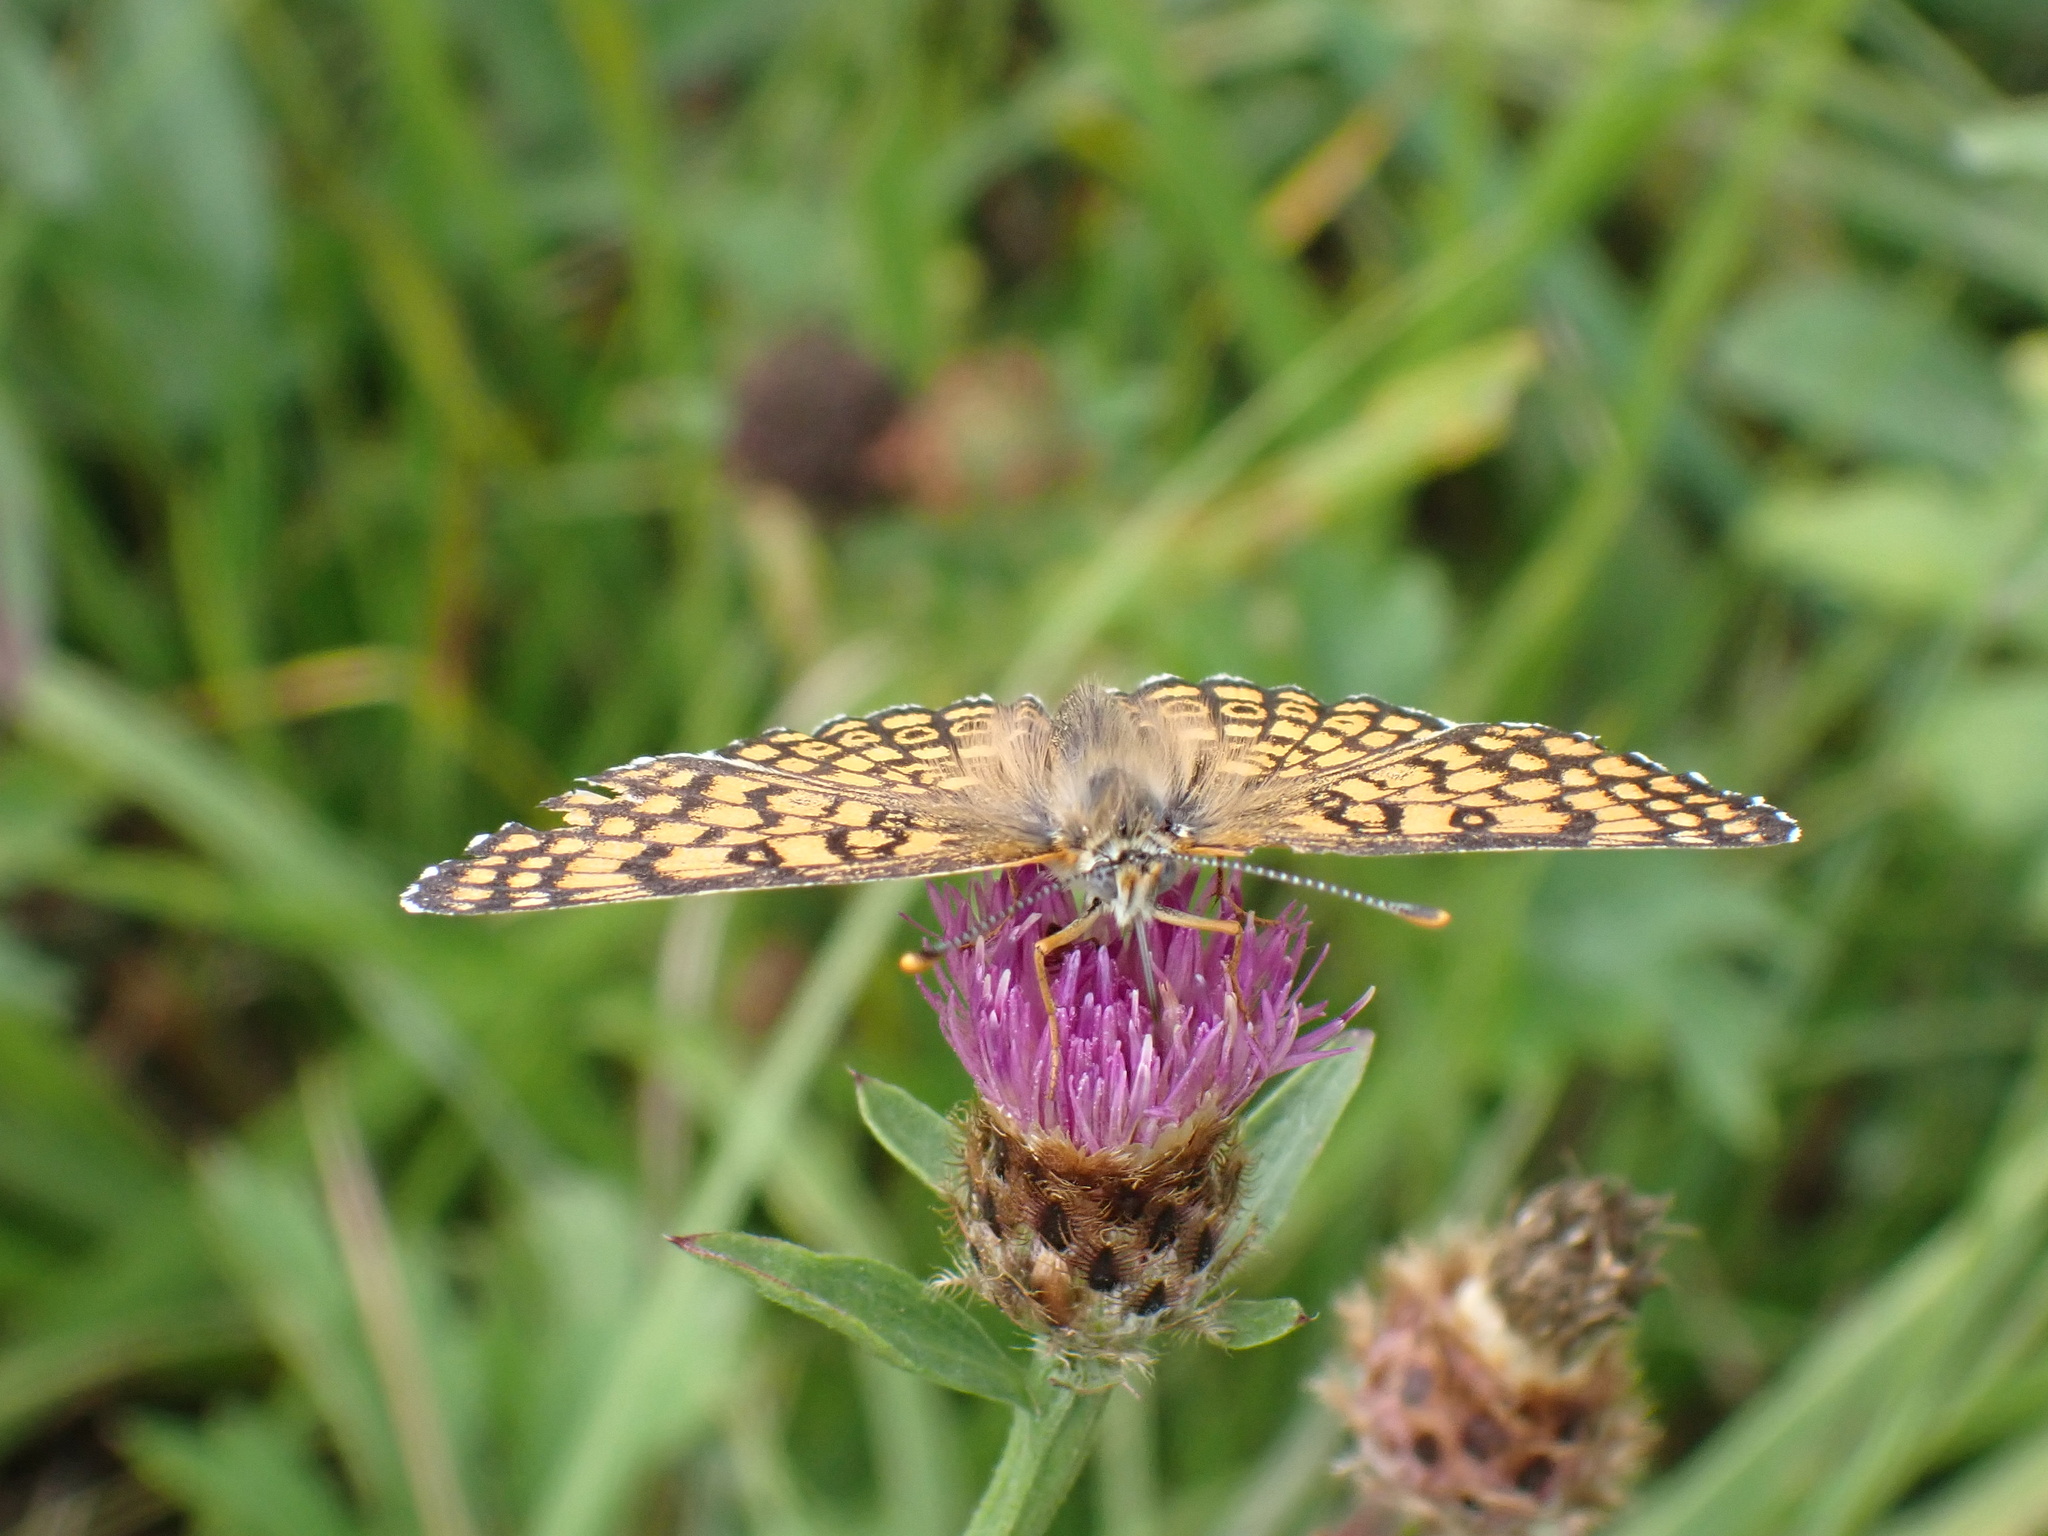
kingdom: Animalia
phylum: Arthropoda
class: Insecta
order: Lepidoptera
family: Nymphalidae
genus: Melitaea
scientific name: Melitaea cinxia
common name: Glanville fritillary
